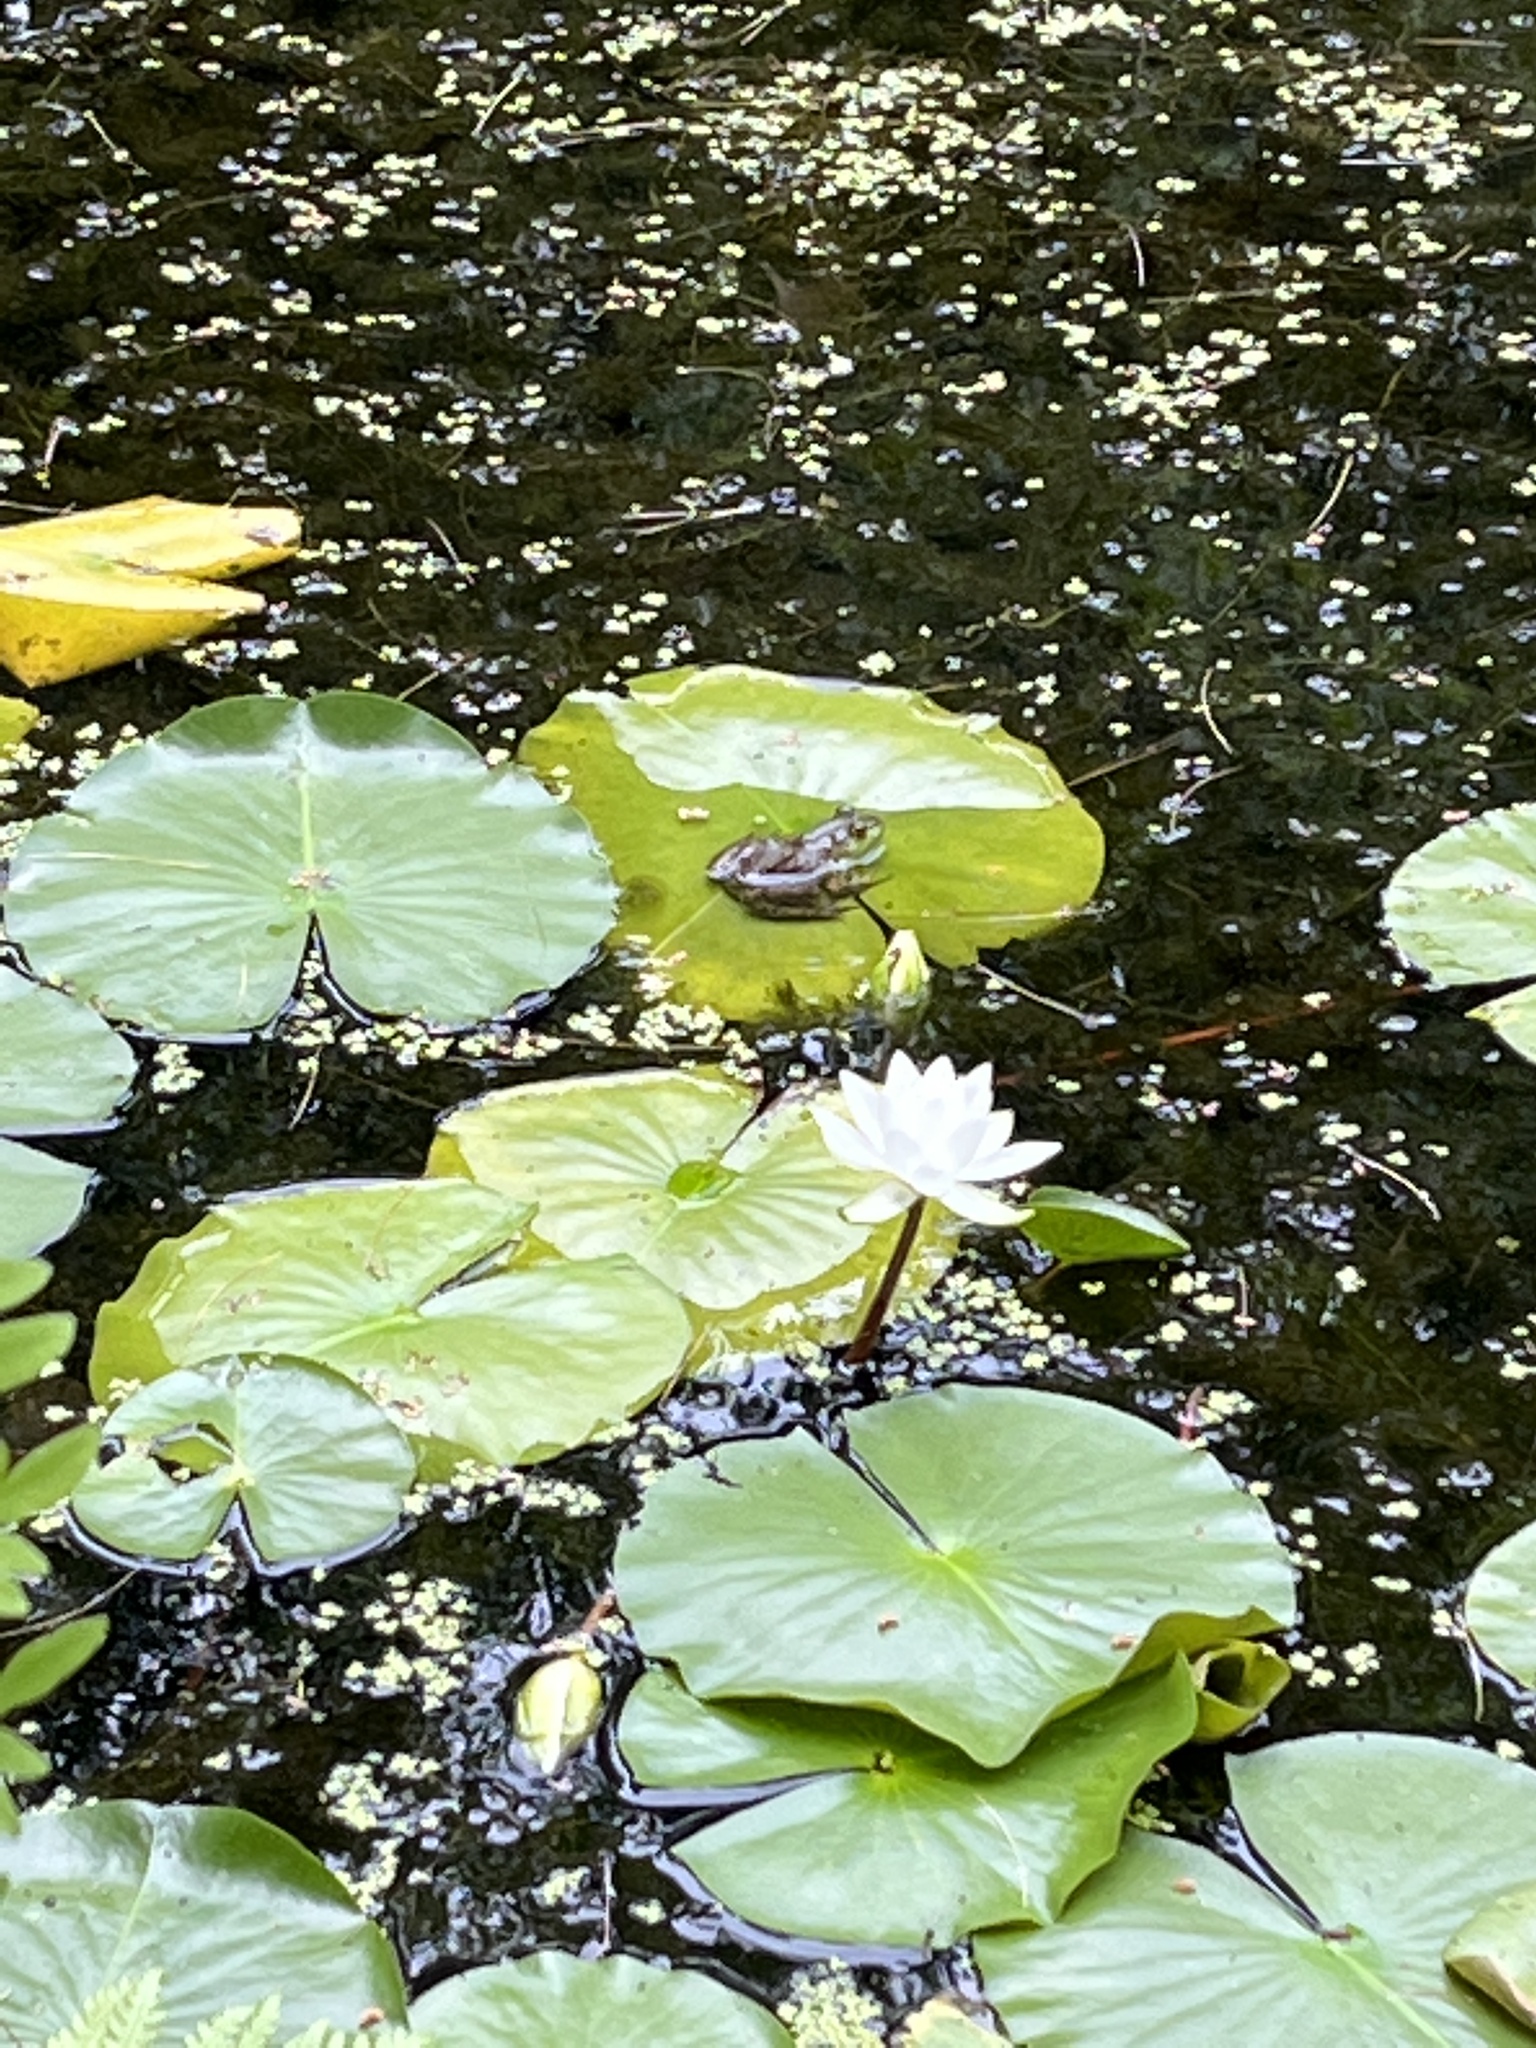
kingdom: Animalia
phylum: Chordata
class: Amphibia
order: Anura
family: Ranidae
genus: Lithobates
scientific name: Lithobates catesbeianus
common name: American bullfrog
